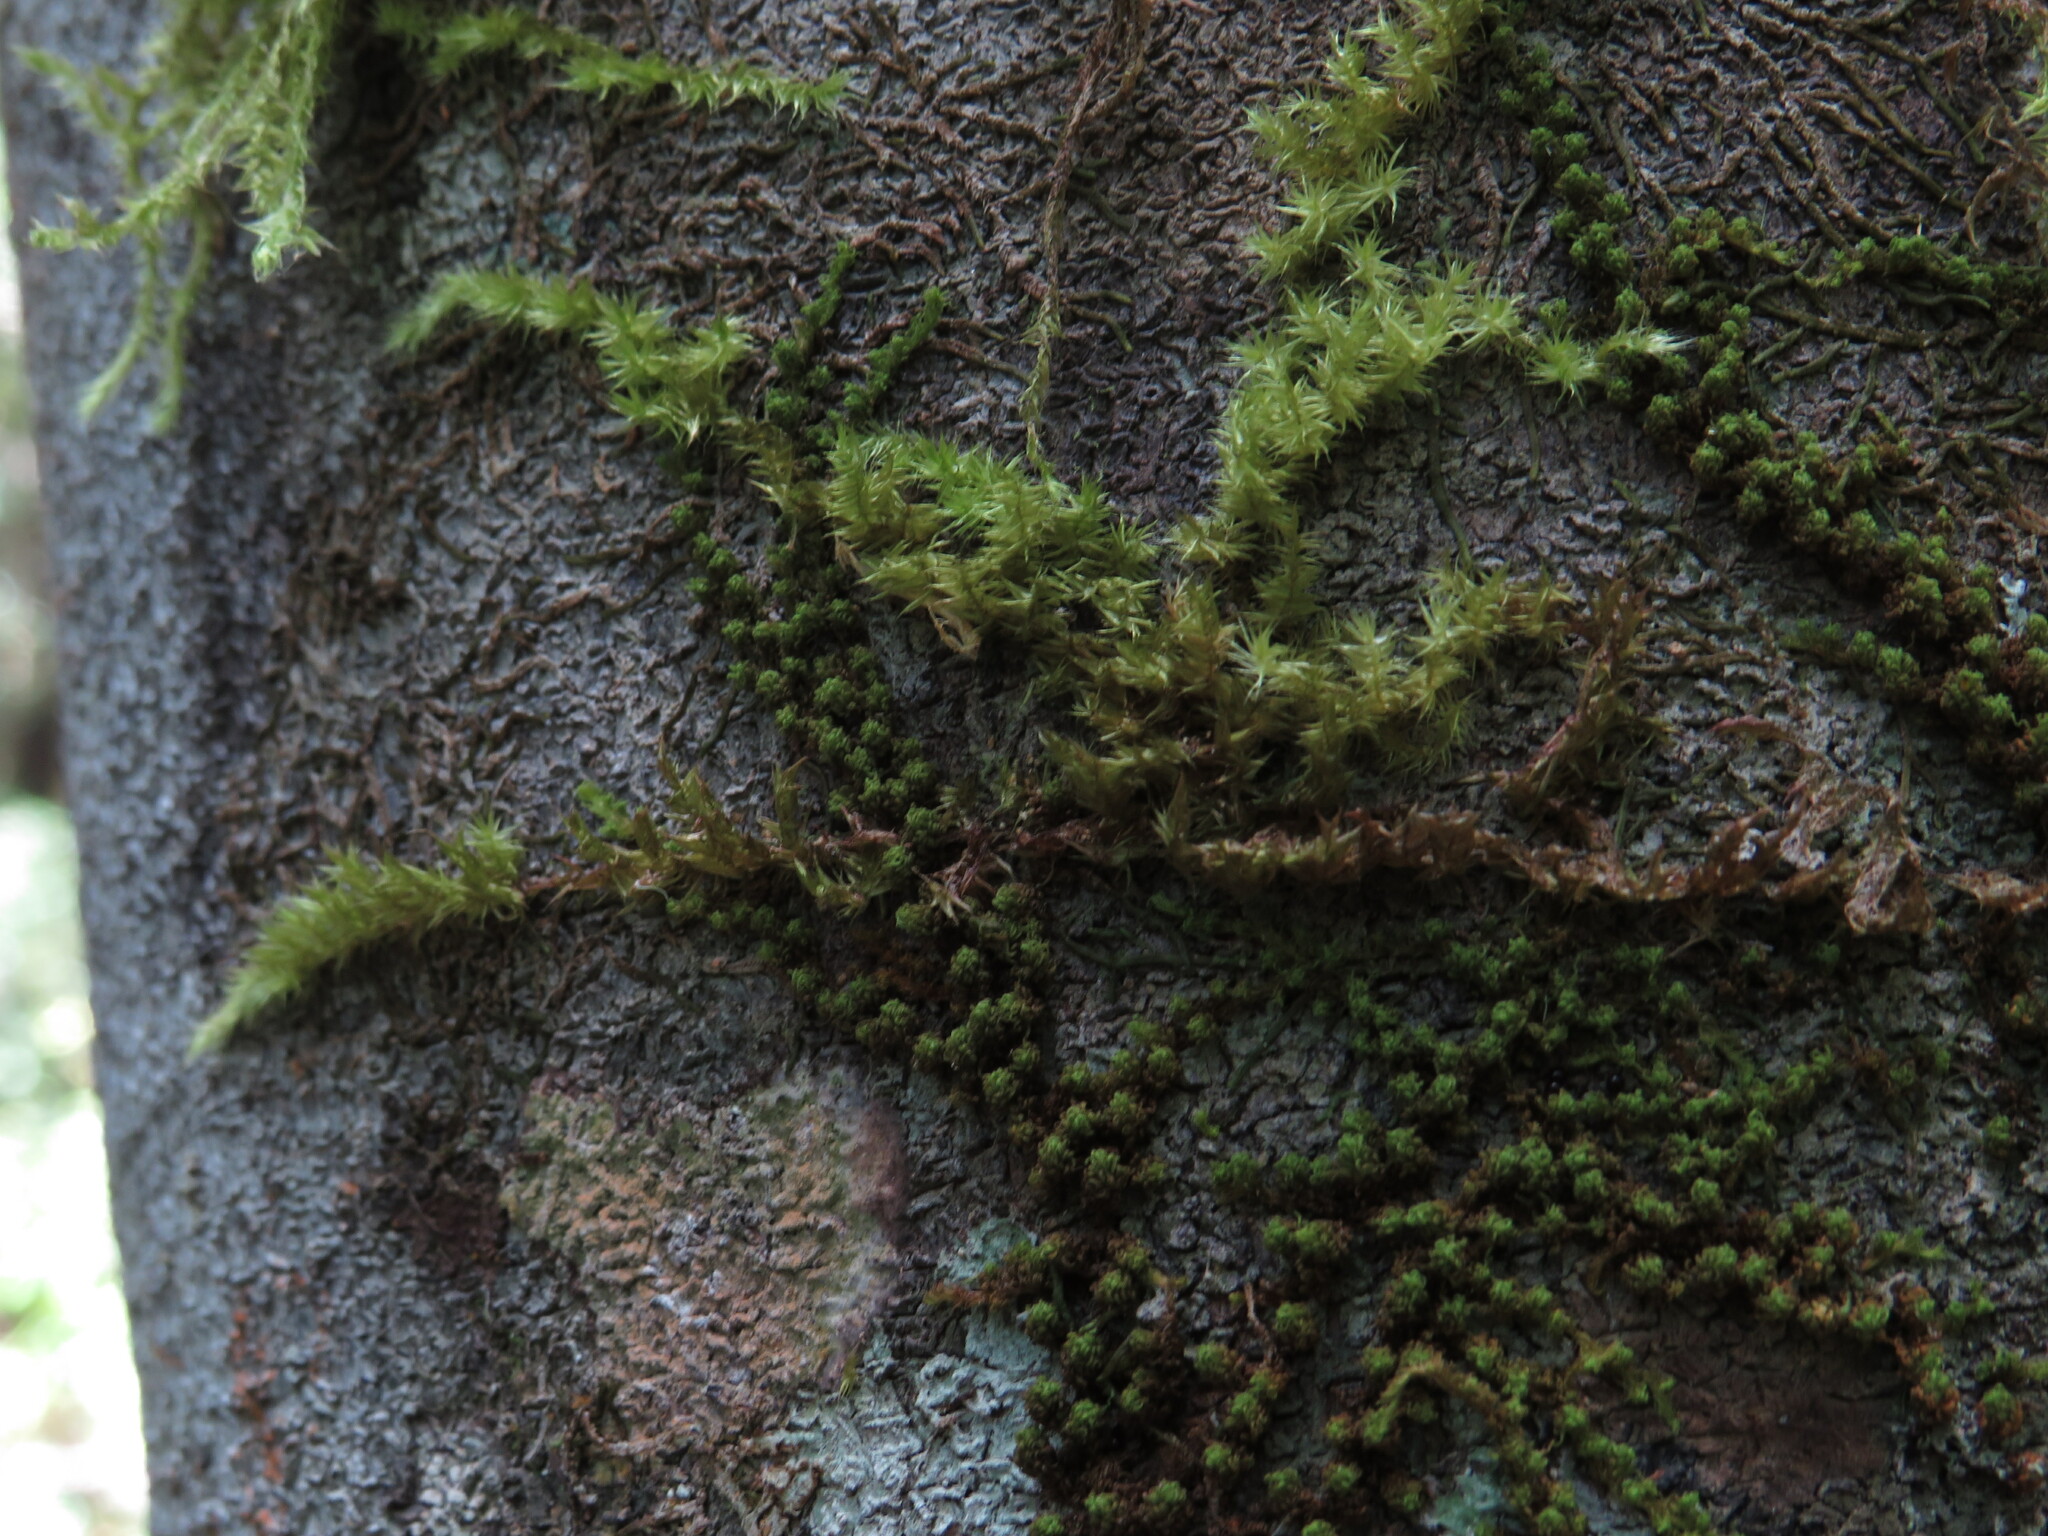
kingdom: Plantae
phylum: Bryophyta
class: Bryopsida
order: Hypnales
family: Meteoriaceae
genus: Aerobryopsis
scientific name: Aerobryopsis capensis
